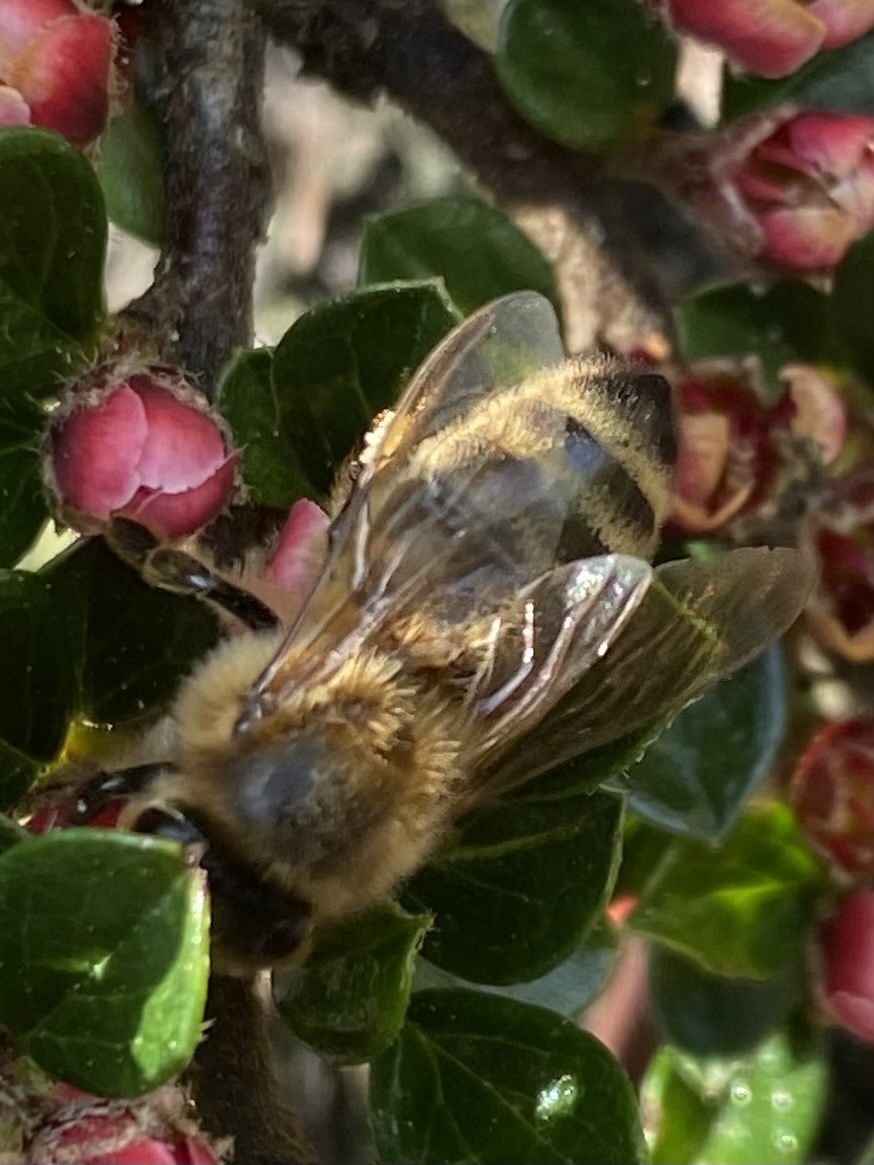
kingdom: Animalia
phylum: Arthropoda
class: Insecta
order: Hymenoptera
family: Apidae
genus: Apis
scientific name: Apis mellifera
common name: Honey bee
